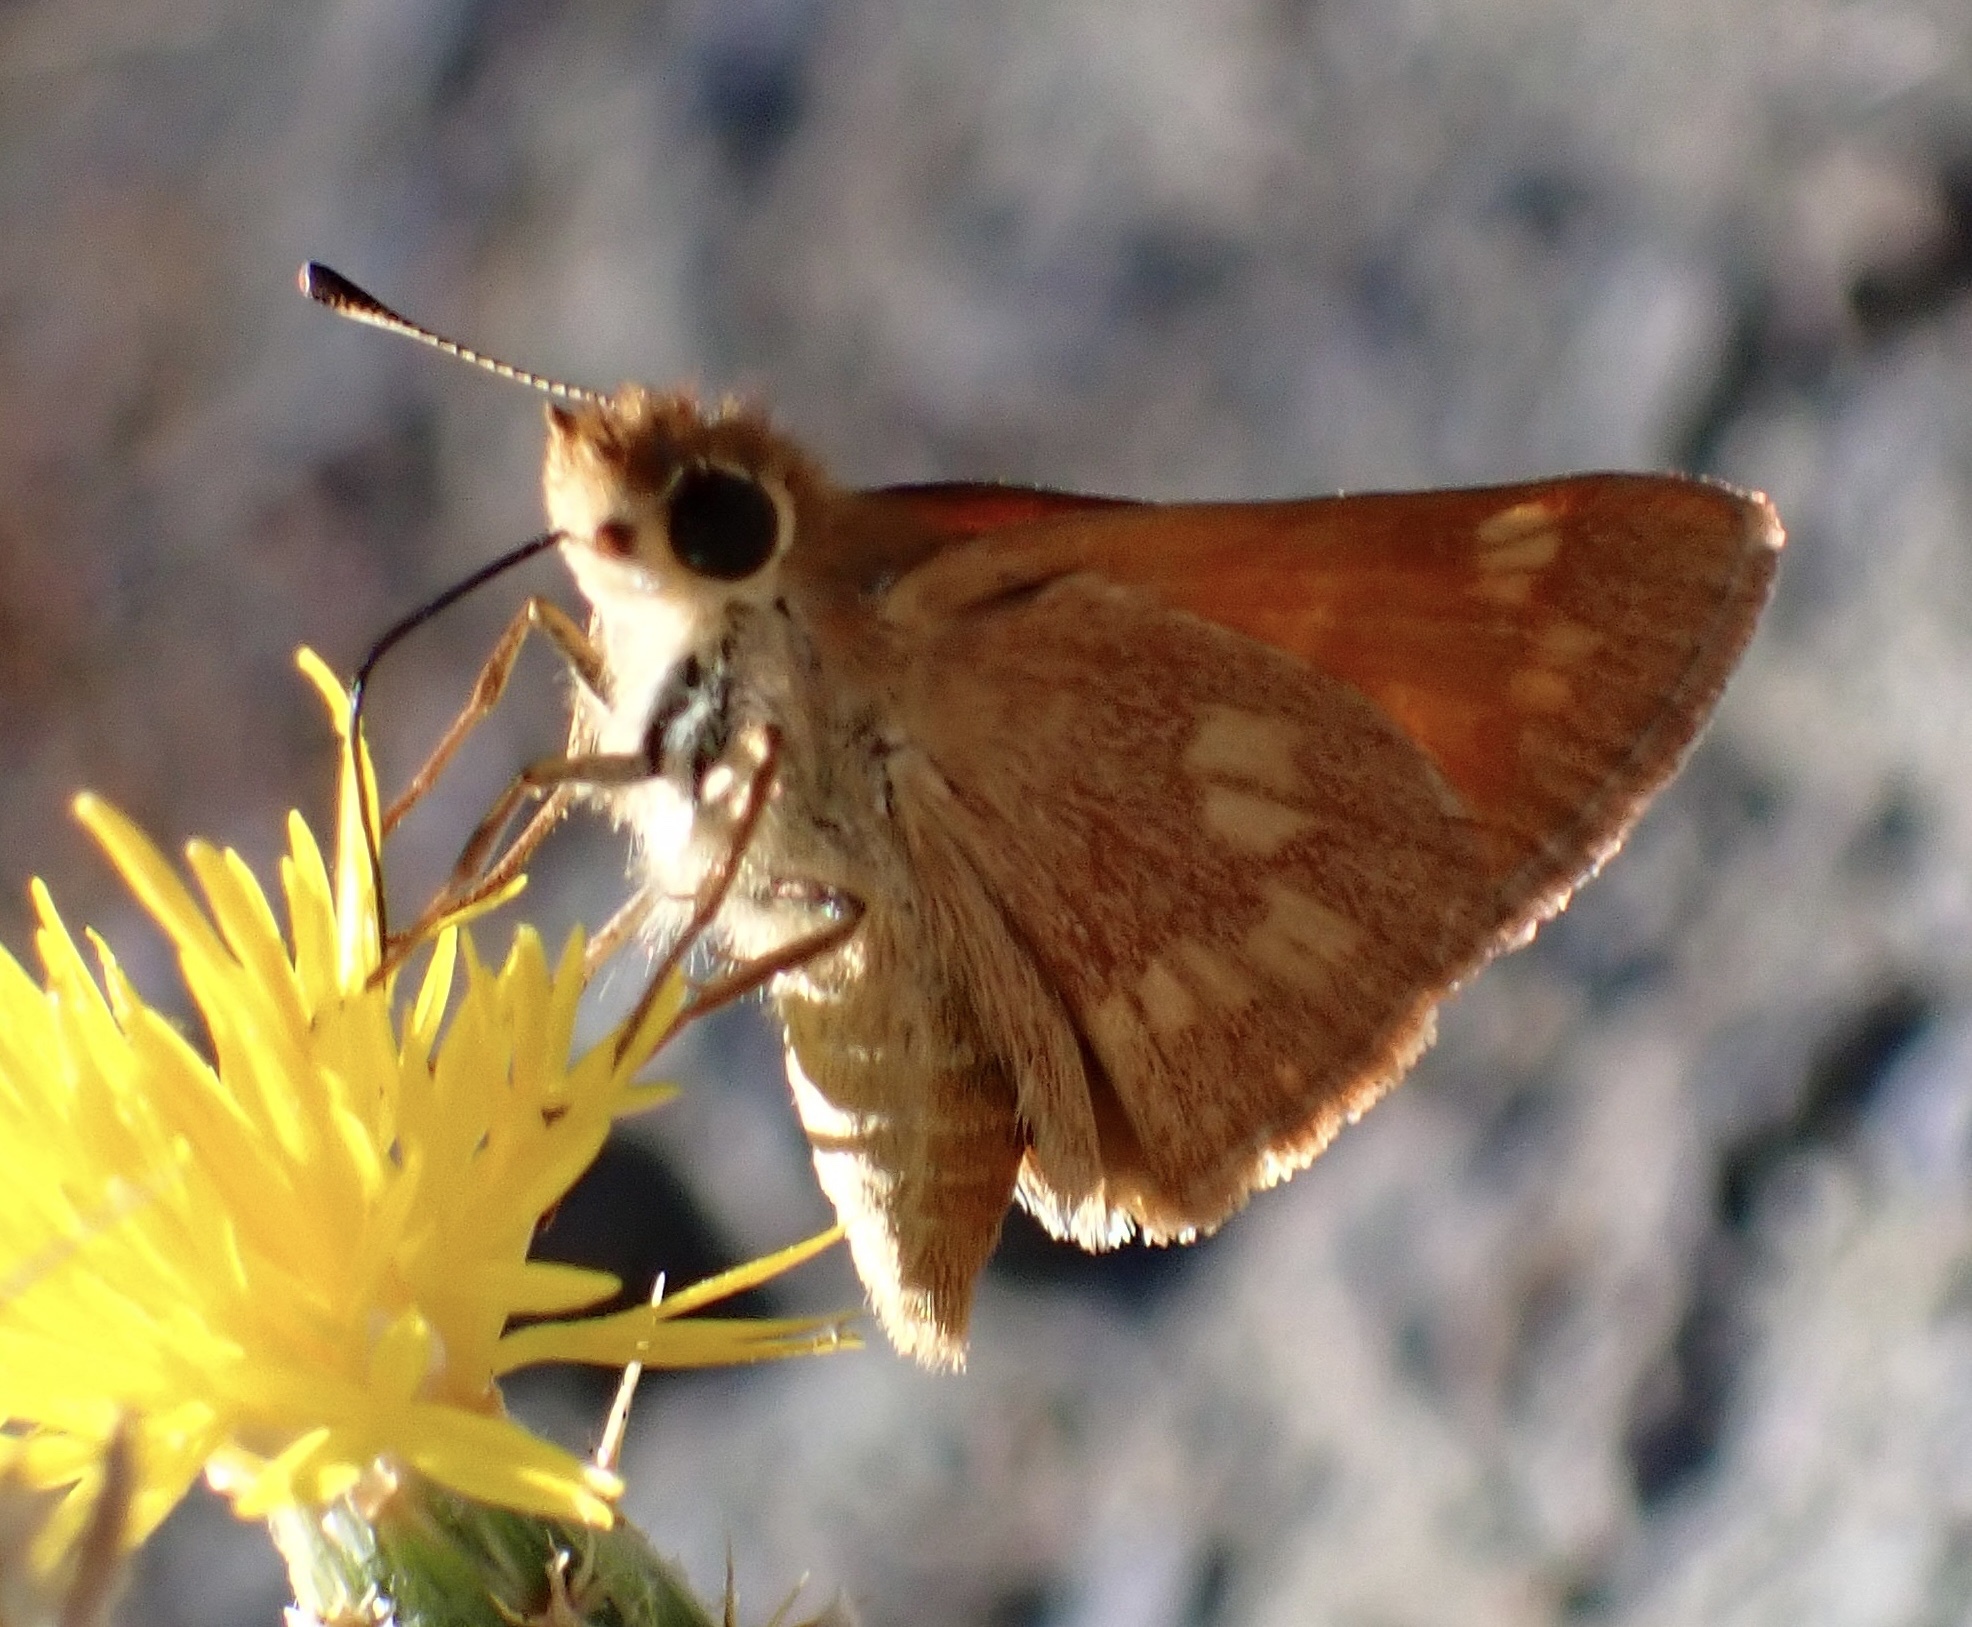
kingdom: Animalia
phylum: Arthropoda
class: Insecta
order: Lepidoptera
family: Hesperiidae
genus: Ochlodes
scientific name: Ochlodes sylvanoides
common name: Woodland skipper
